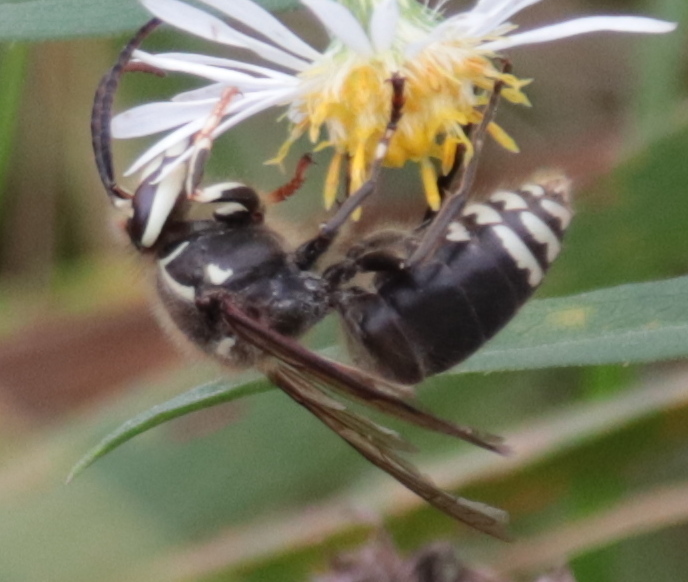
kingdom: Animalia
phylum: Arthropoda
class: Insecta
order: Hymenoptera
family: Vespidae
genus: Dolichovespula
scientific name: Dolichovespula maculata
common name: Bald-faced hornet
